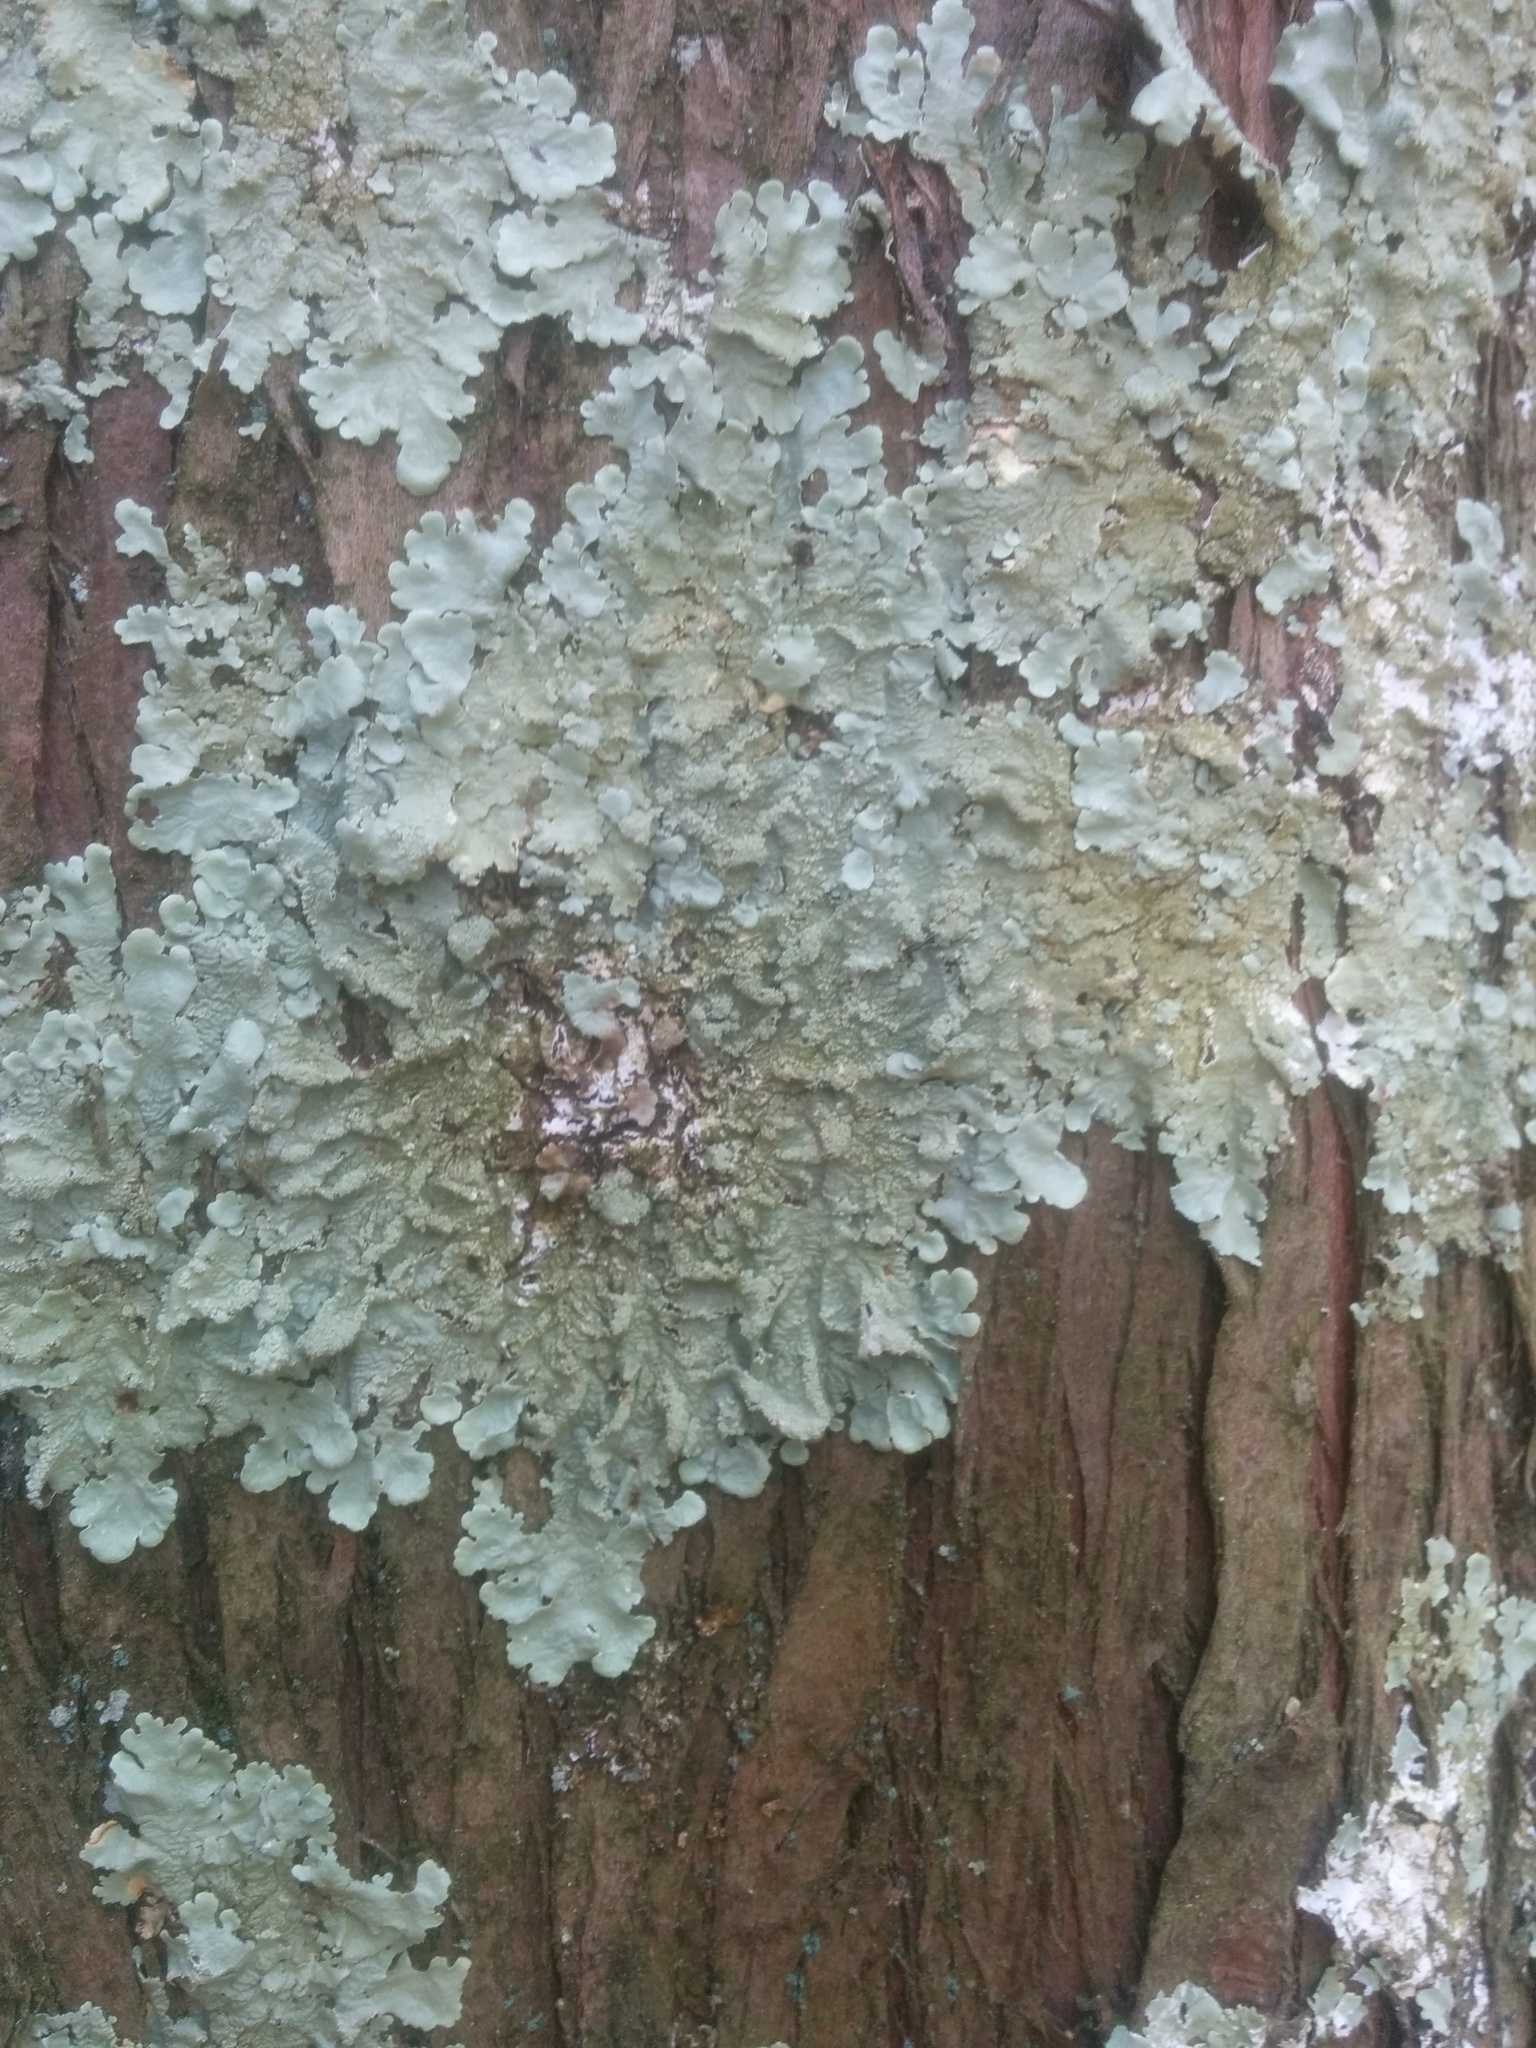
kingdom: Fungi
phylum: Ascomycota
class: Lecanoromycetes
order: Lecanorales
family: Parmeliaceae
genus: Flavoparmelia
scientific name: Flavoparmelia caperata
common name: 40-mile per hour lichen
